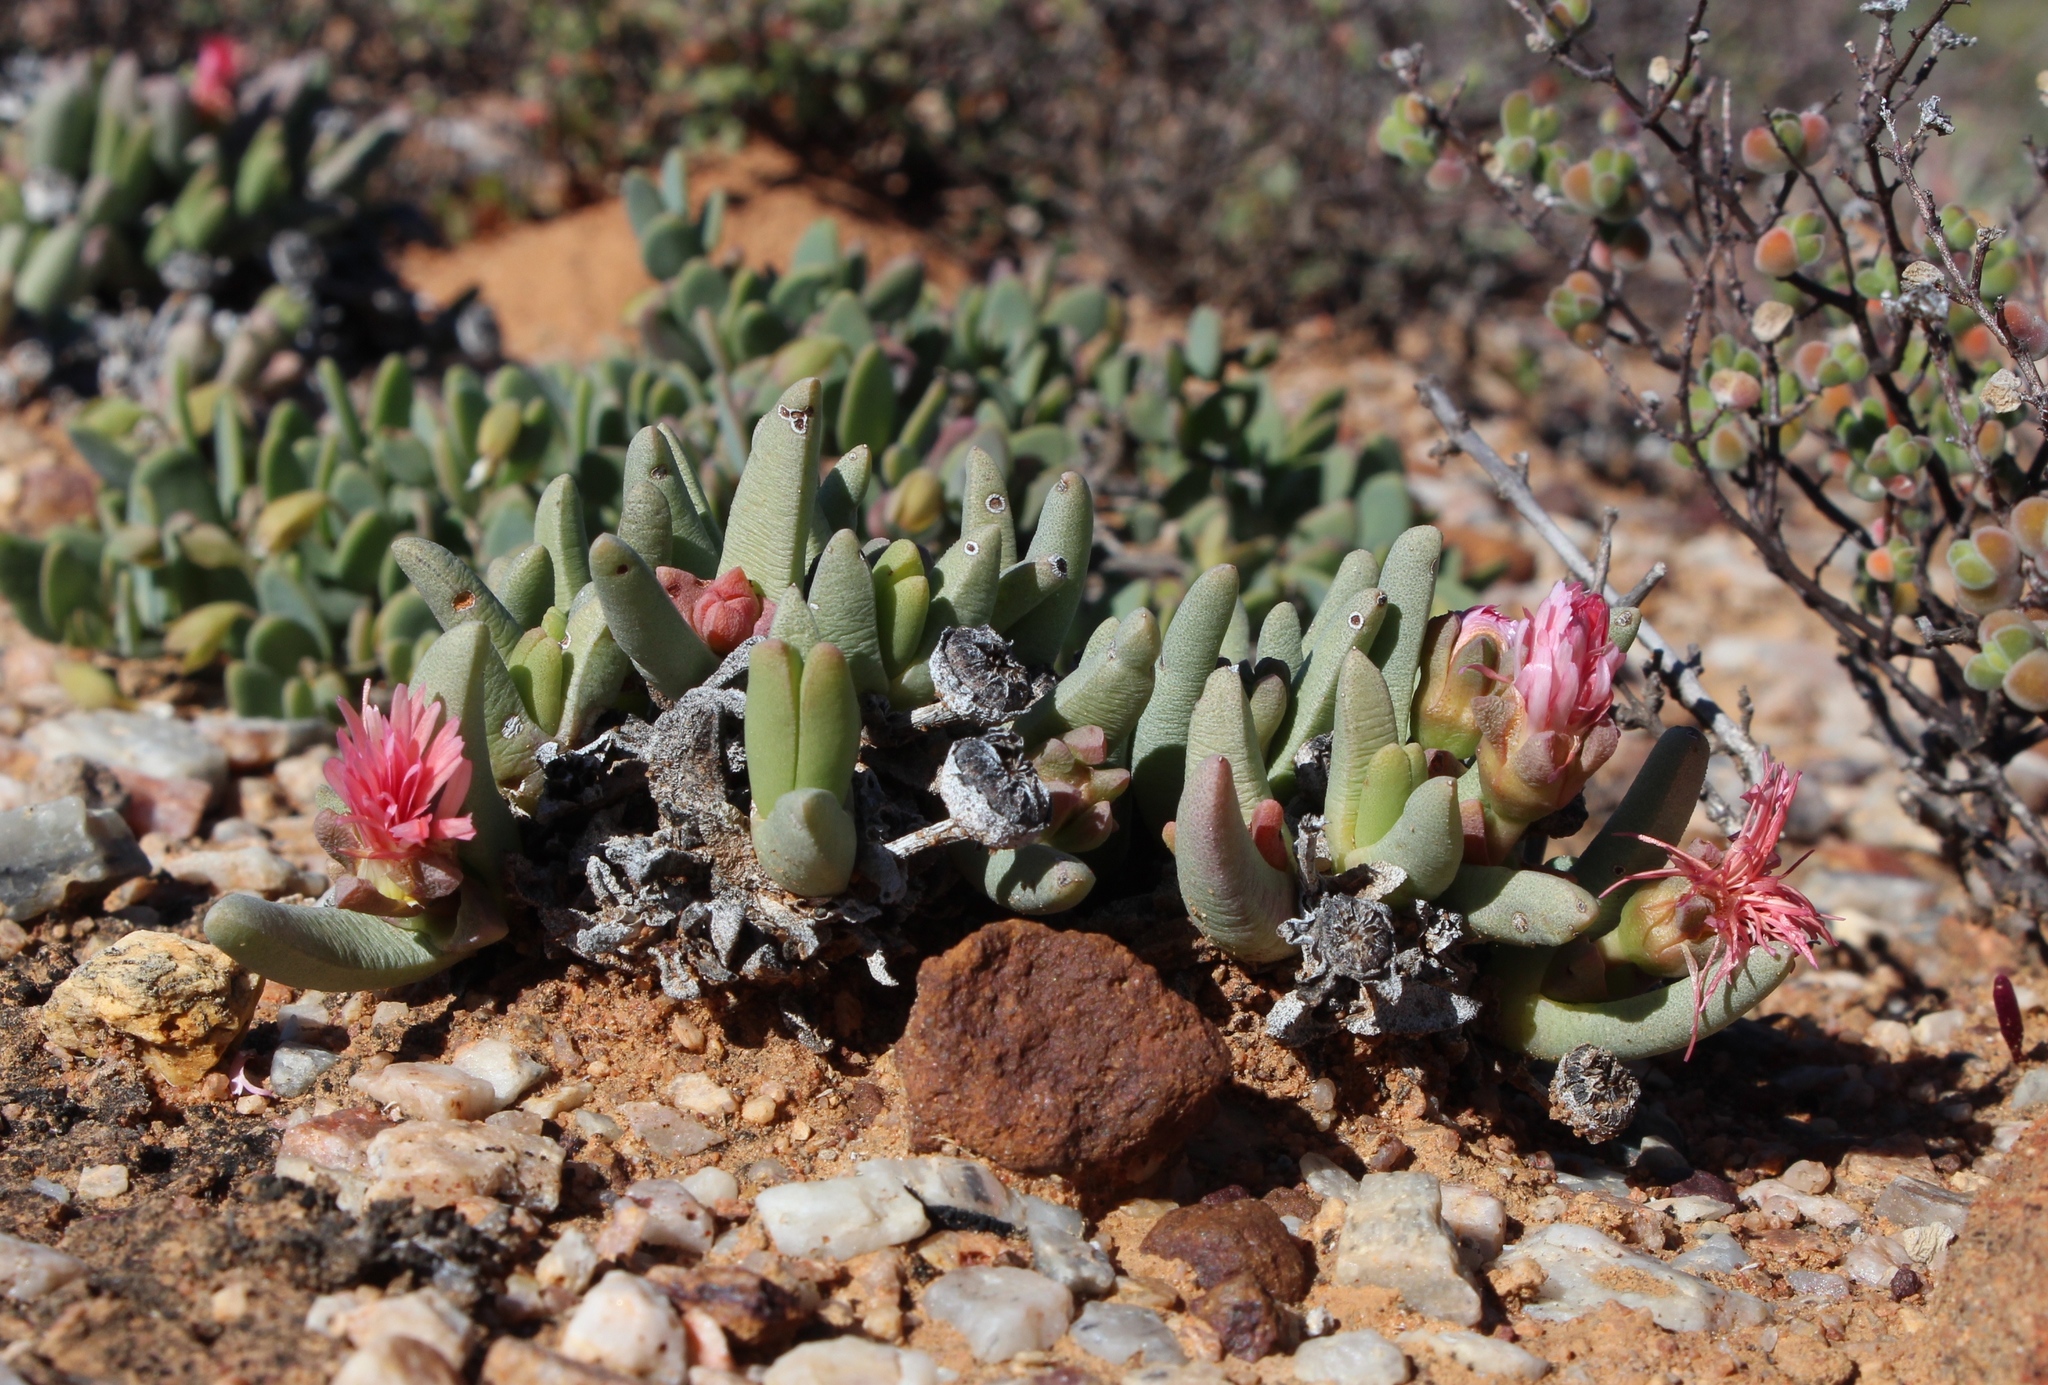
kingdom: Plantae
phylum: Tracheophyta
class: Magnoliopsida
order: Caryophyllales
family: Aizoaceae
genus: Cephalophyllum
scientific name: Cephalophyllum tricolorum
